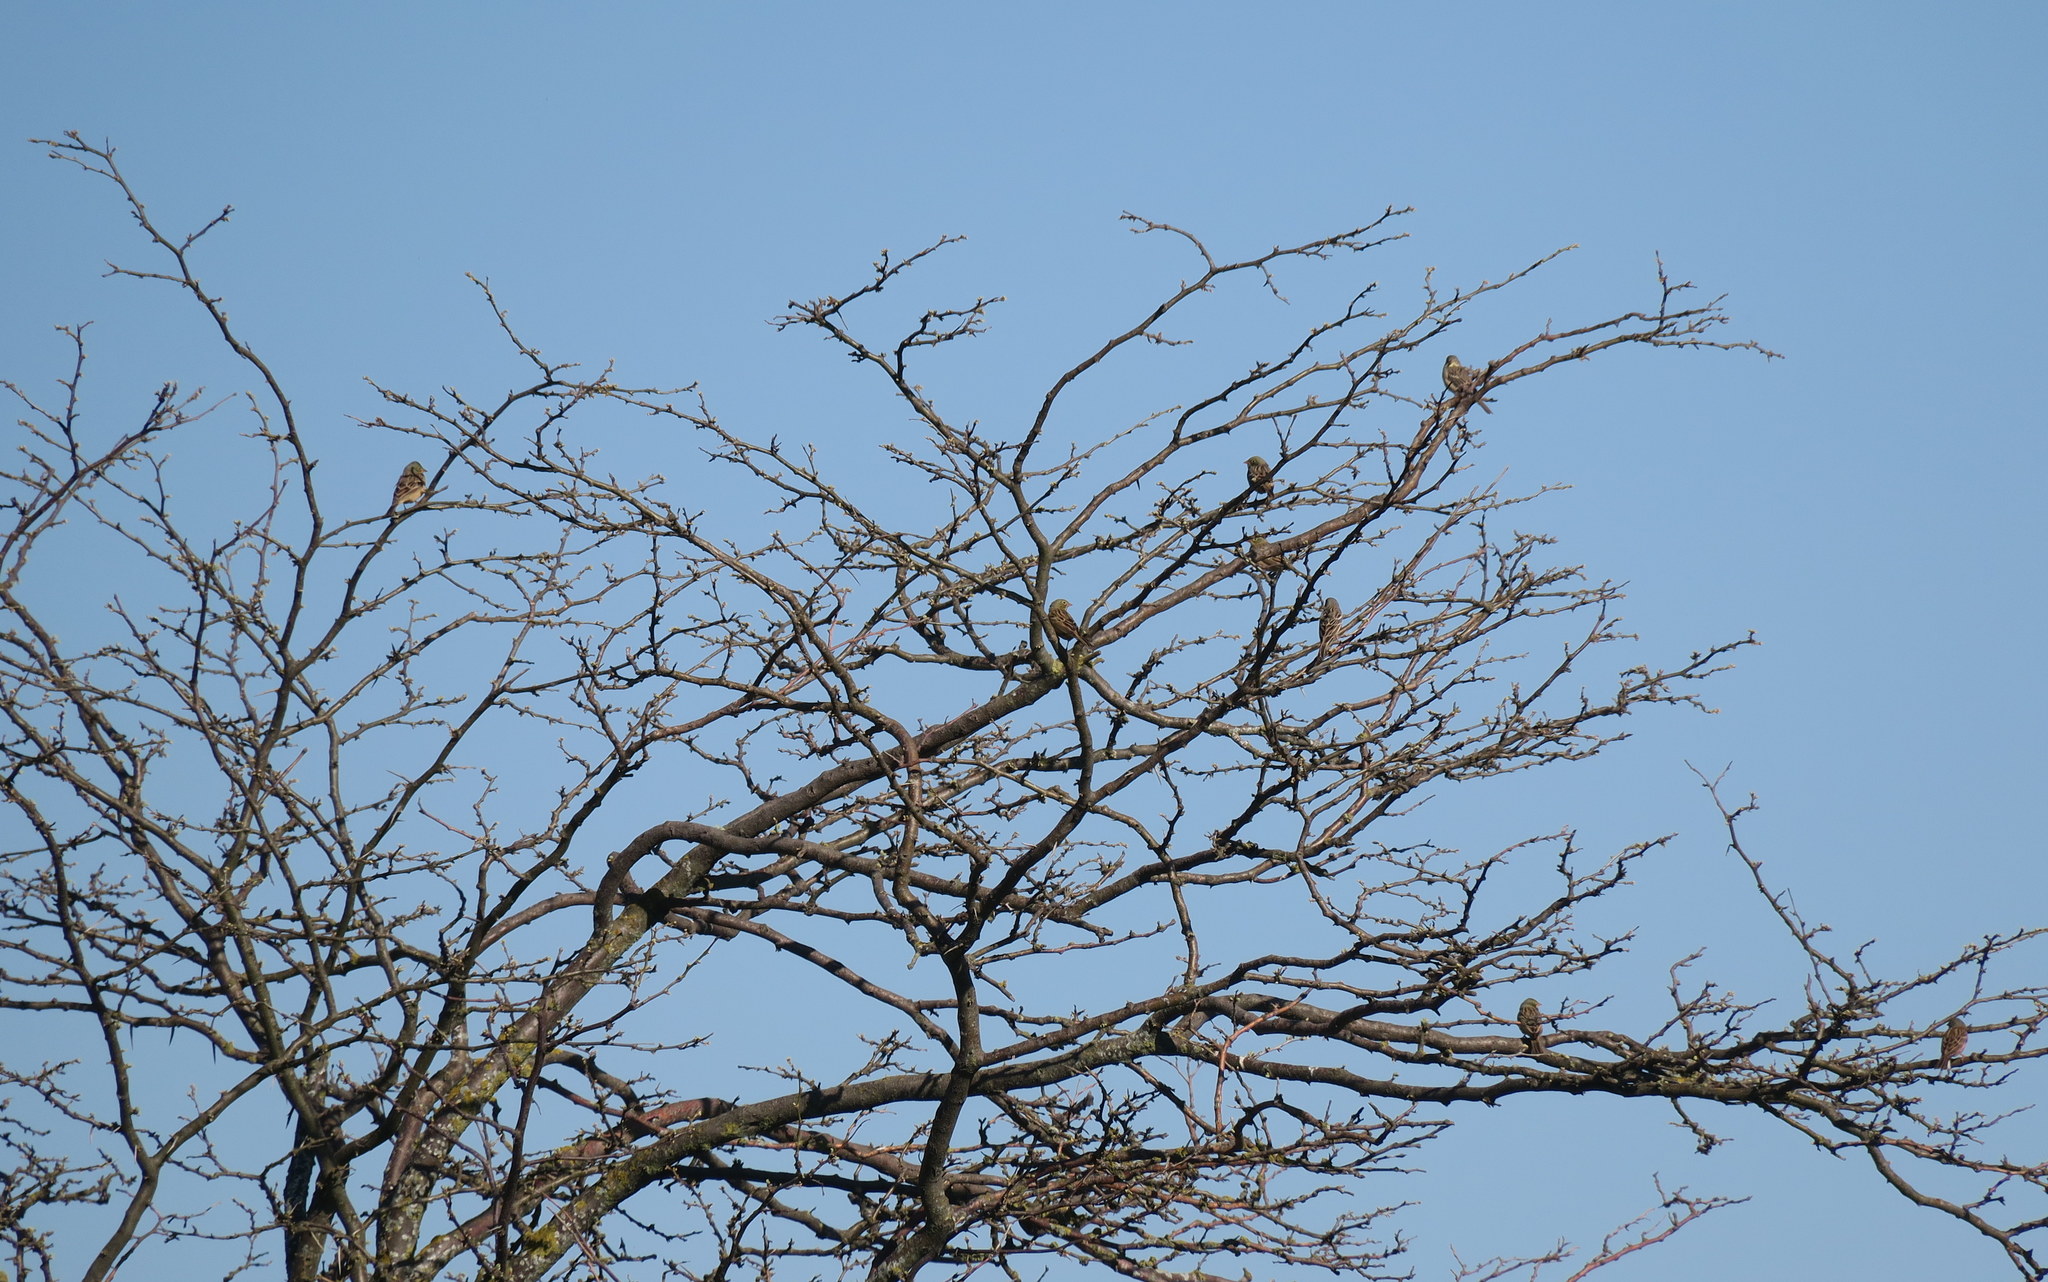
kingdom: Animalia
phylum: Chordata
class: Aves
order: Passeriformes
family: Emberizidae
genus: Emberiza
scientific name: Emberiza hortulana
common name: Ortolan bunting
